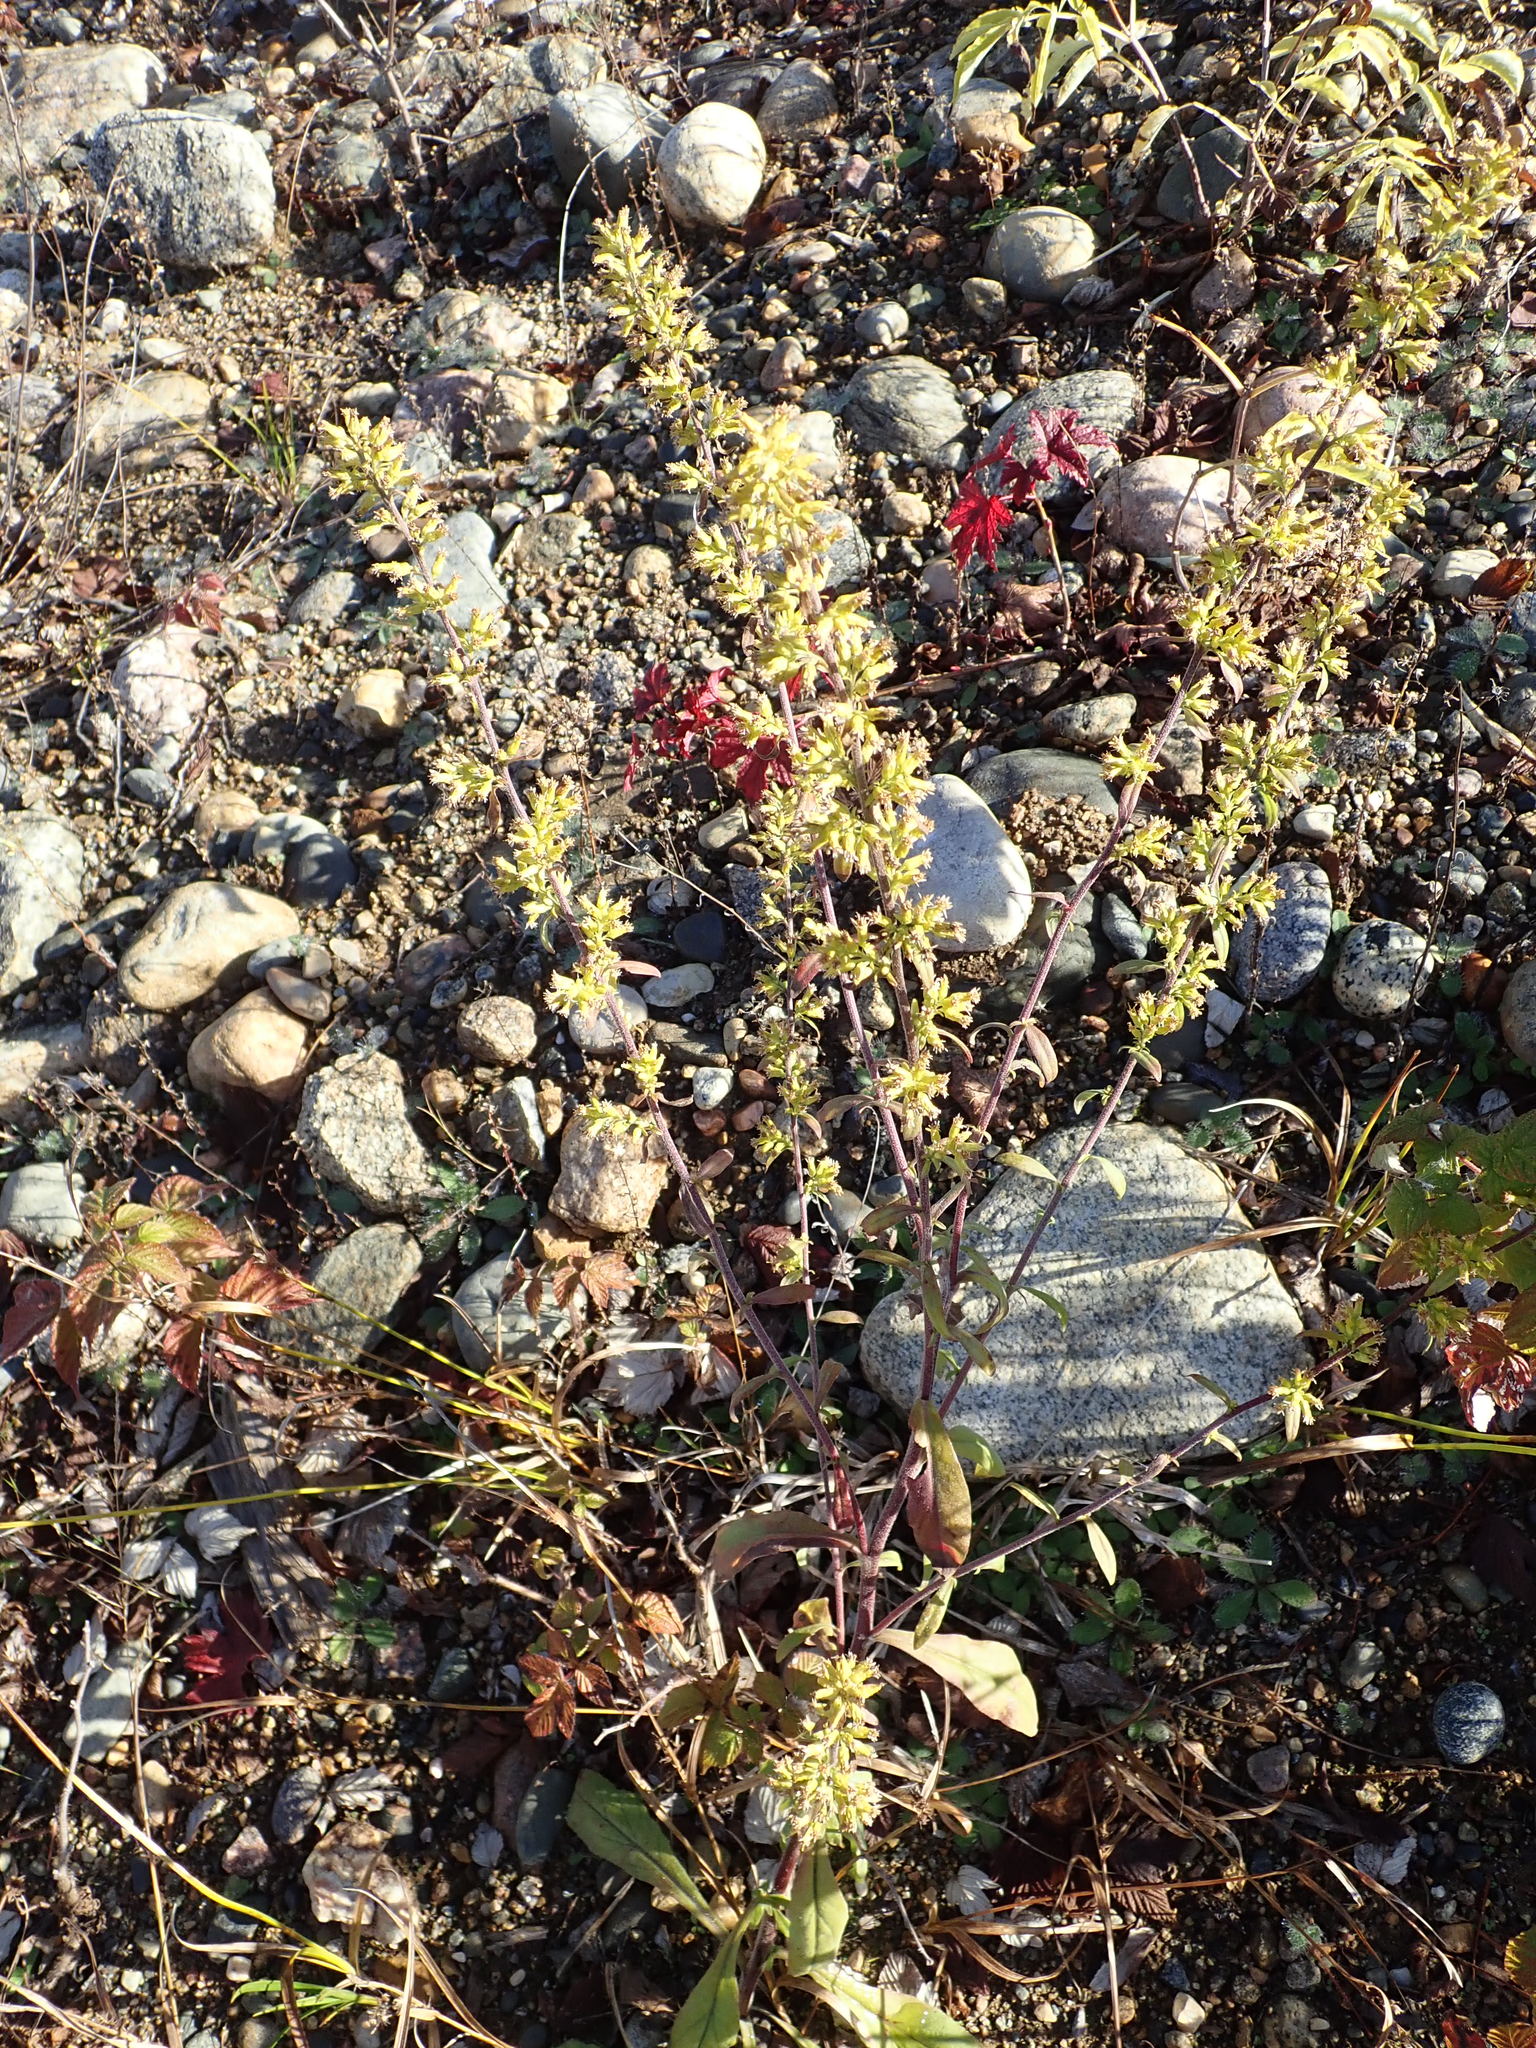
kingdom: Plantae
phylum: Tracheophyta
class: Magnoliopsida
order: Asterales
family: Asteraceae
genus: Solidago
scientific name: Solidago hispida
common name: Hairy goldenrod
